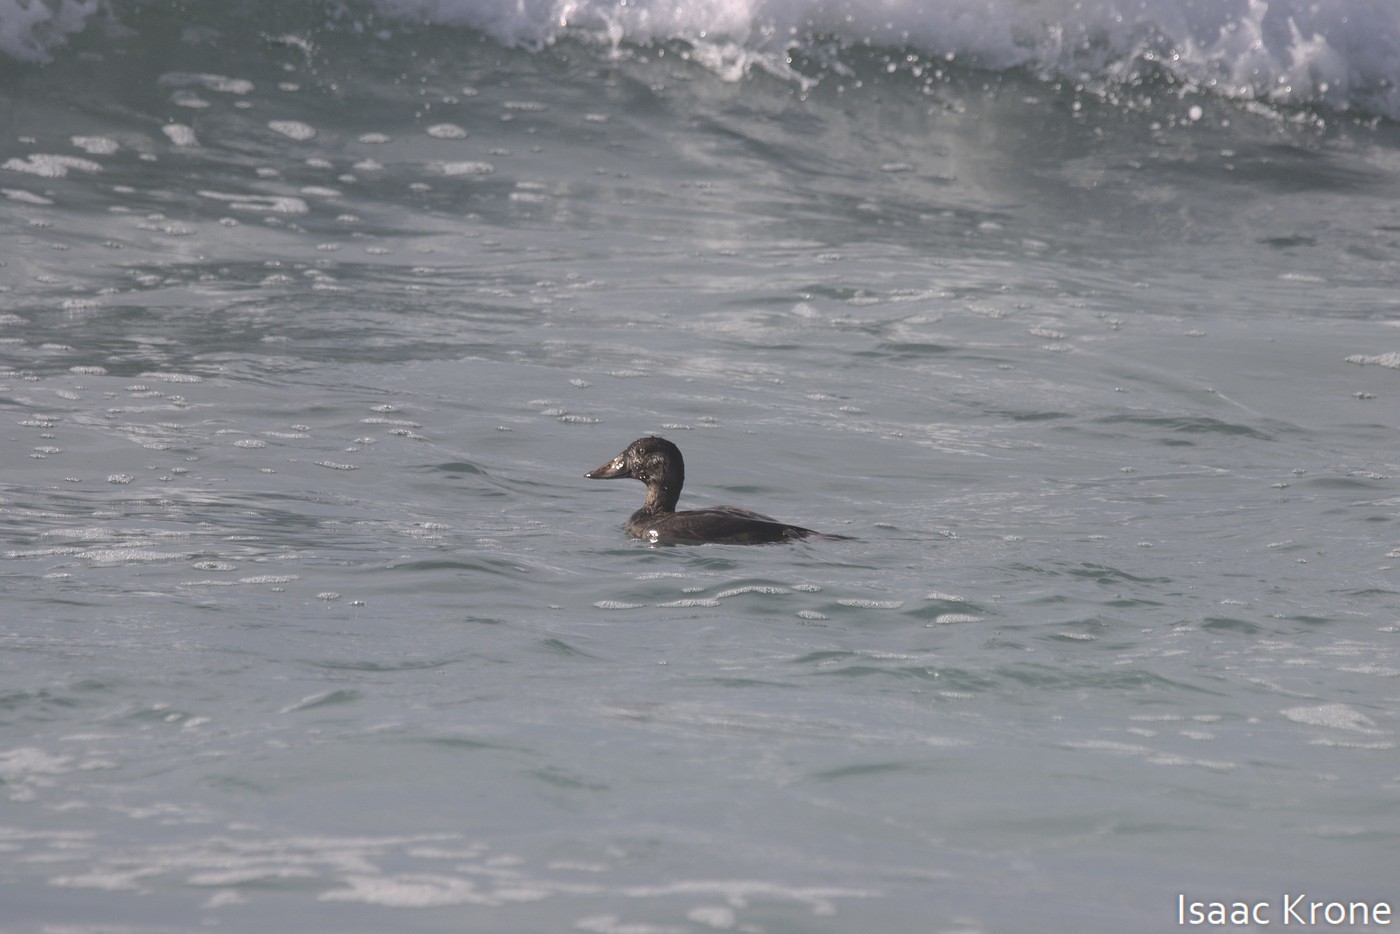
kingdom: Animalia
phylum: Chordata
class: Aves
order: Anseriformes
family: Anatidae
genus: Melanitta
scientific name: Melanitta perspicillata
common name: Surf scoter
